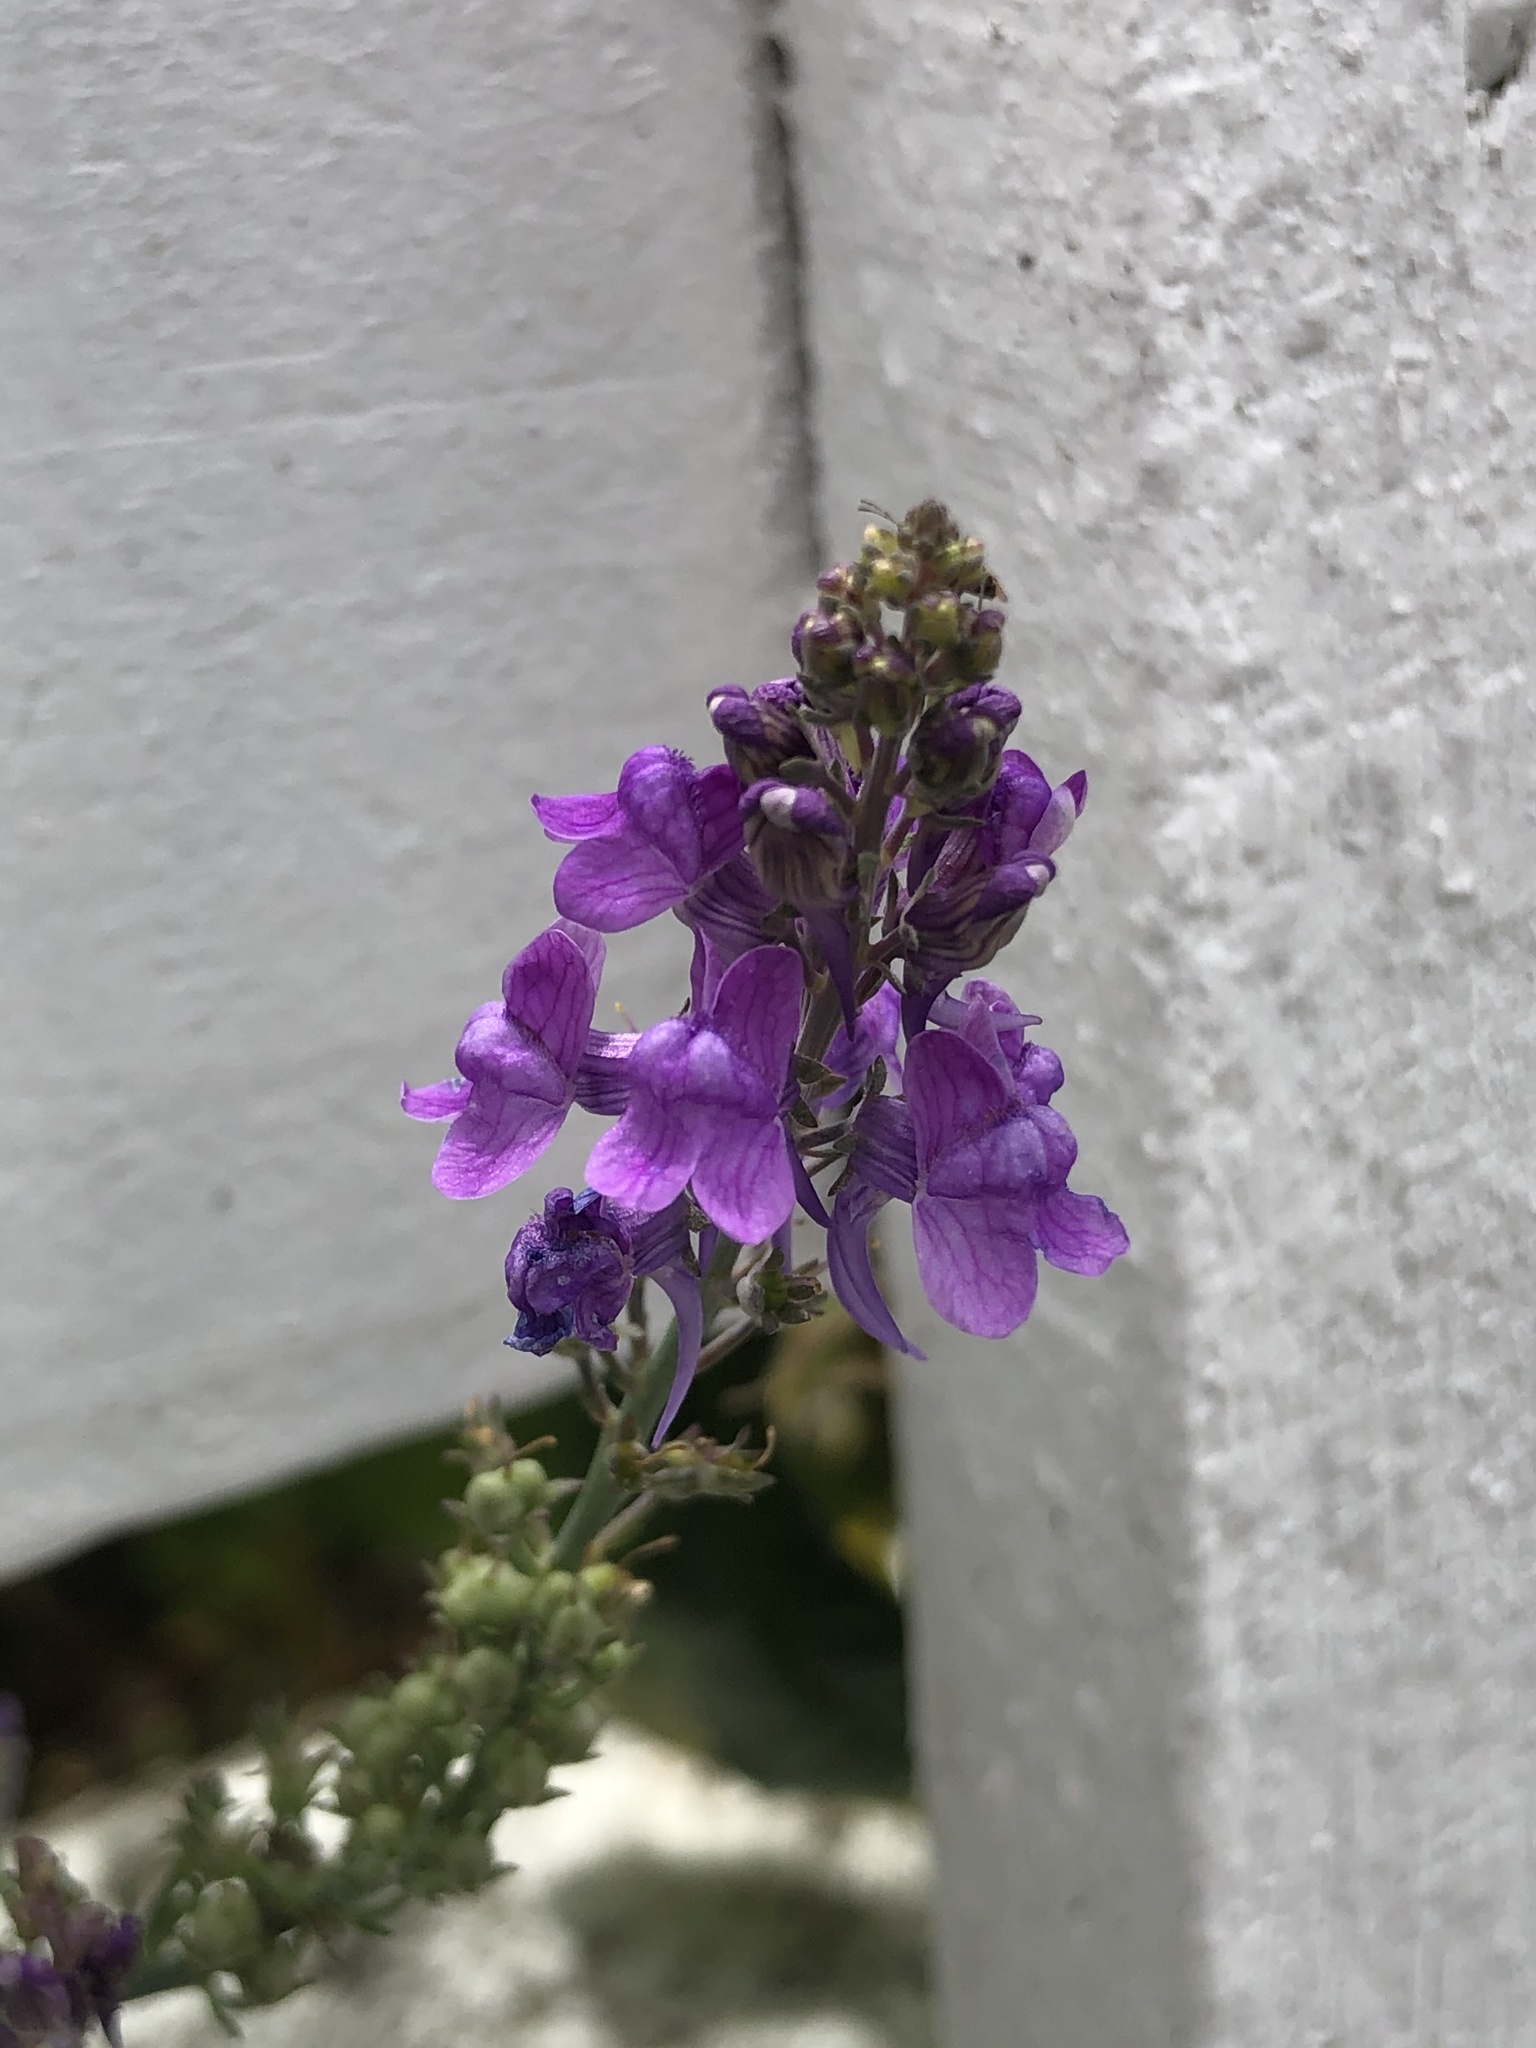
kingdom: Plantae
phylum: Tracheophyta
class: Magnoliopsida
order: Lamiales
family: Plantaginaceae
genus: Linaria
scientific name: Linaria purpurea
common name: Purple toadflax
